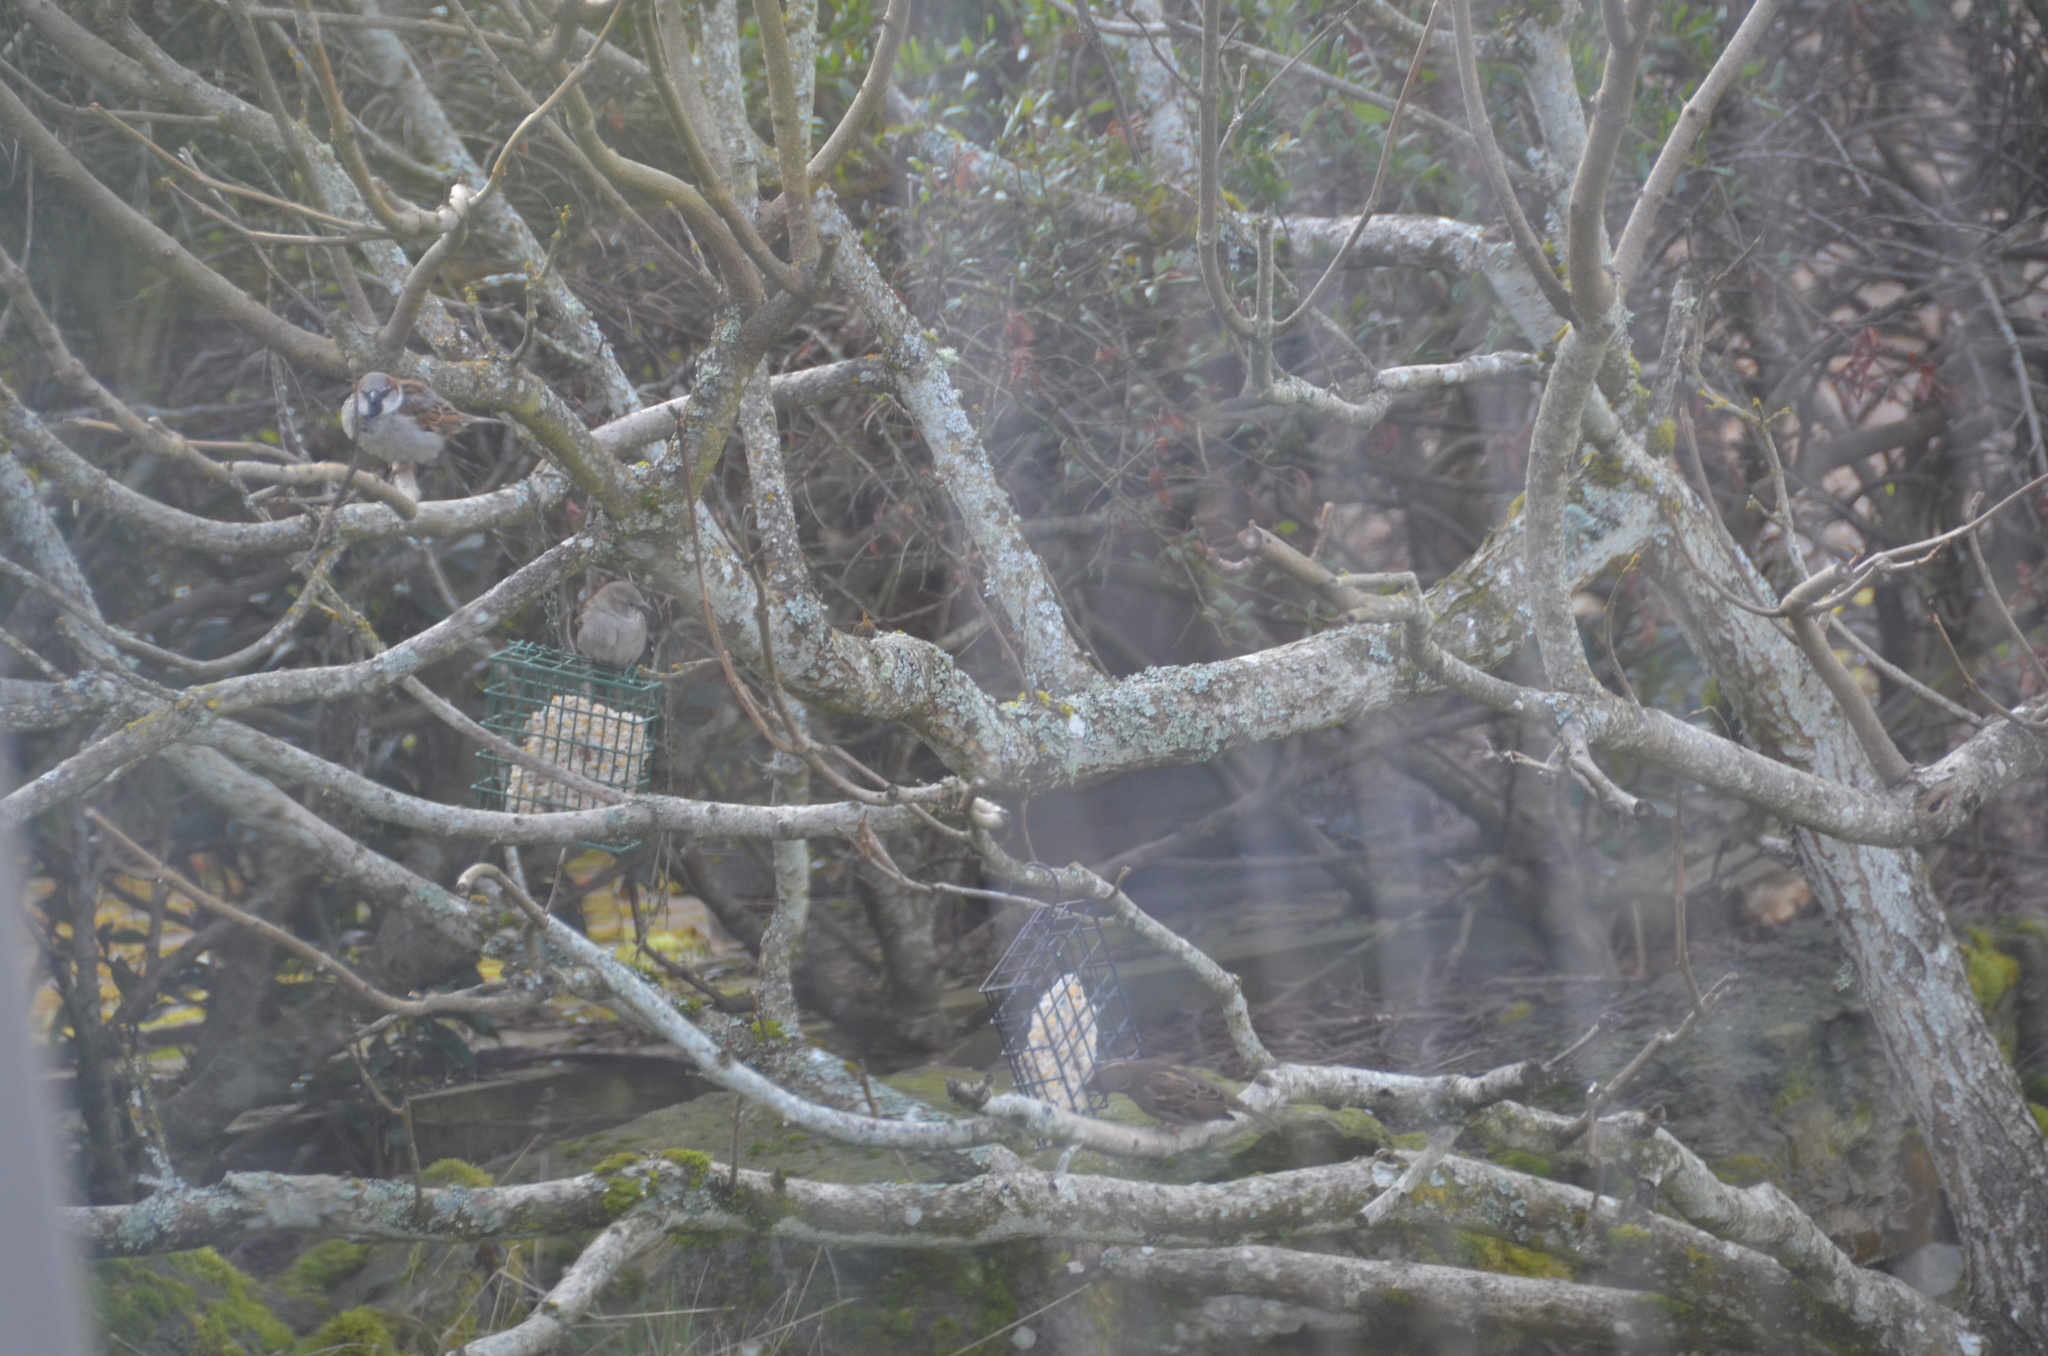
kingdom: Animalia
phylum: Chordata
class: Aves
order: Passeriformes
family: Passeridae
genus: Passer
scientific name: Passer domesticus
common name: House sparrow
